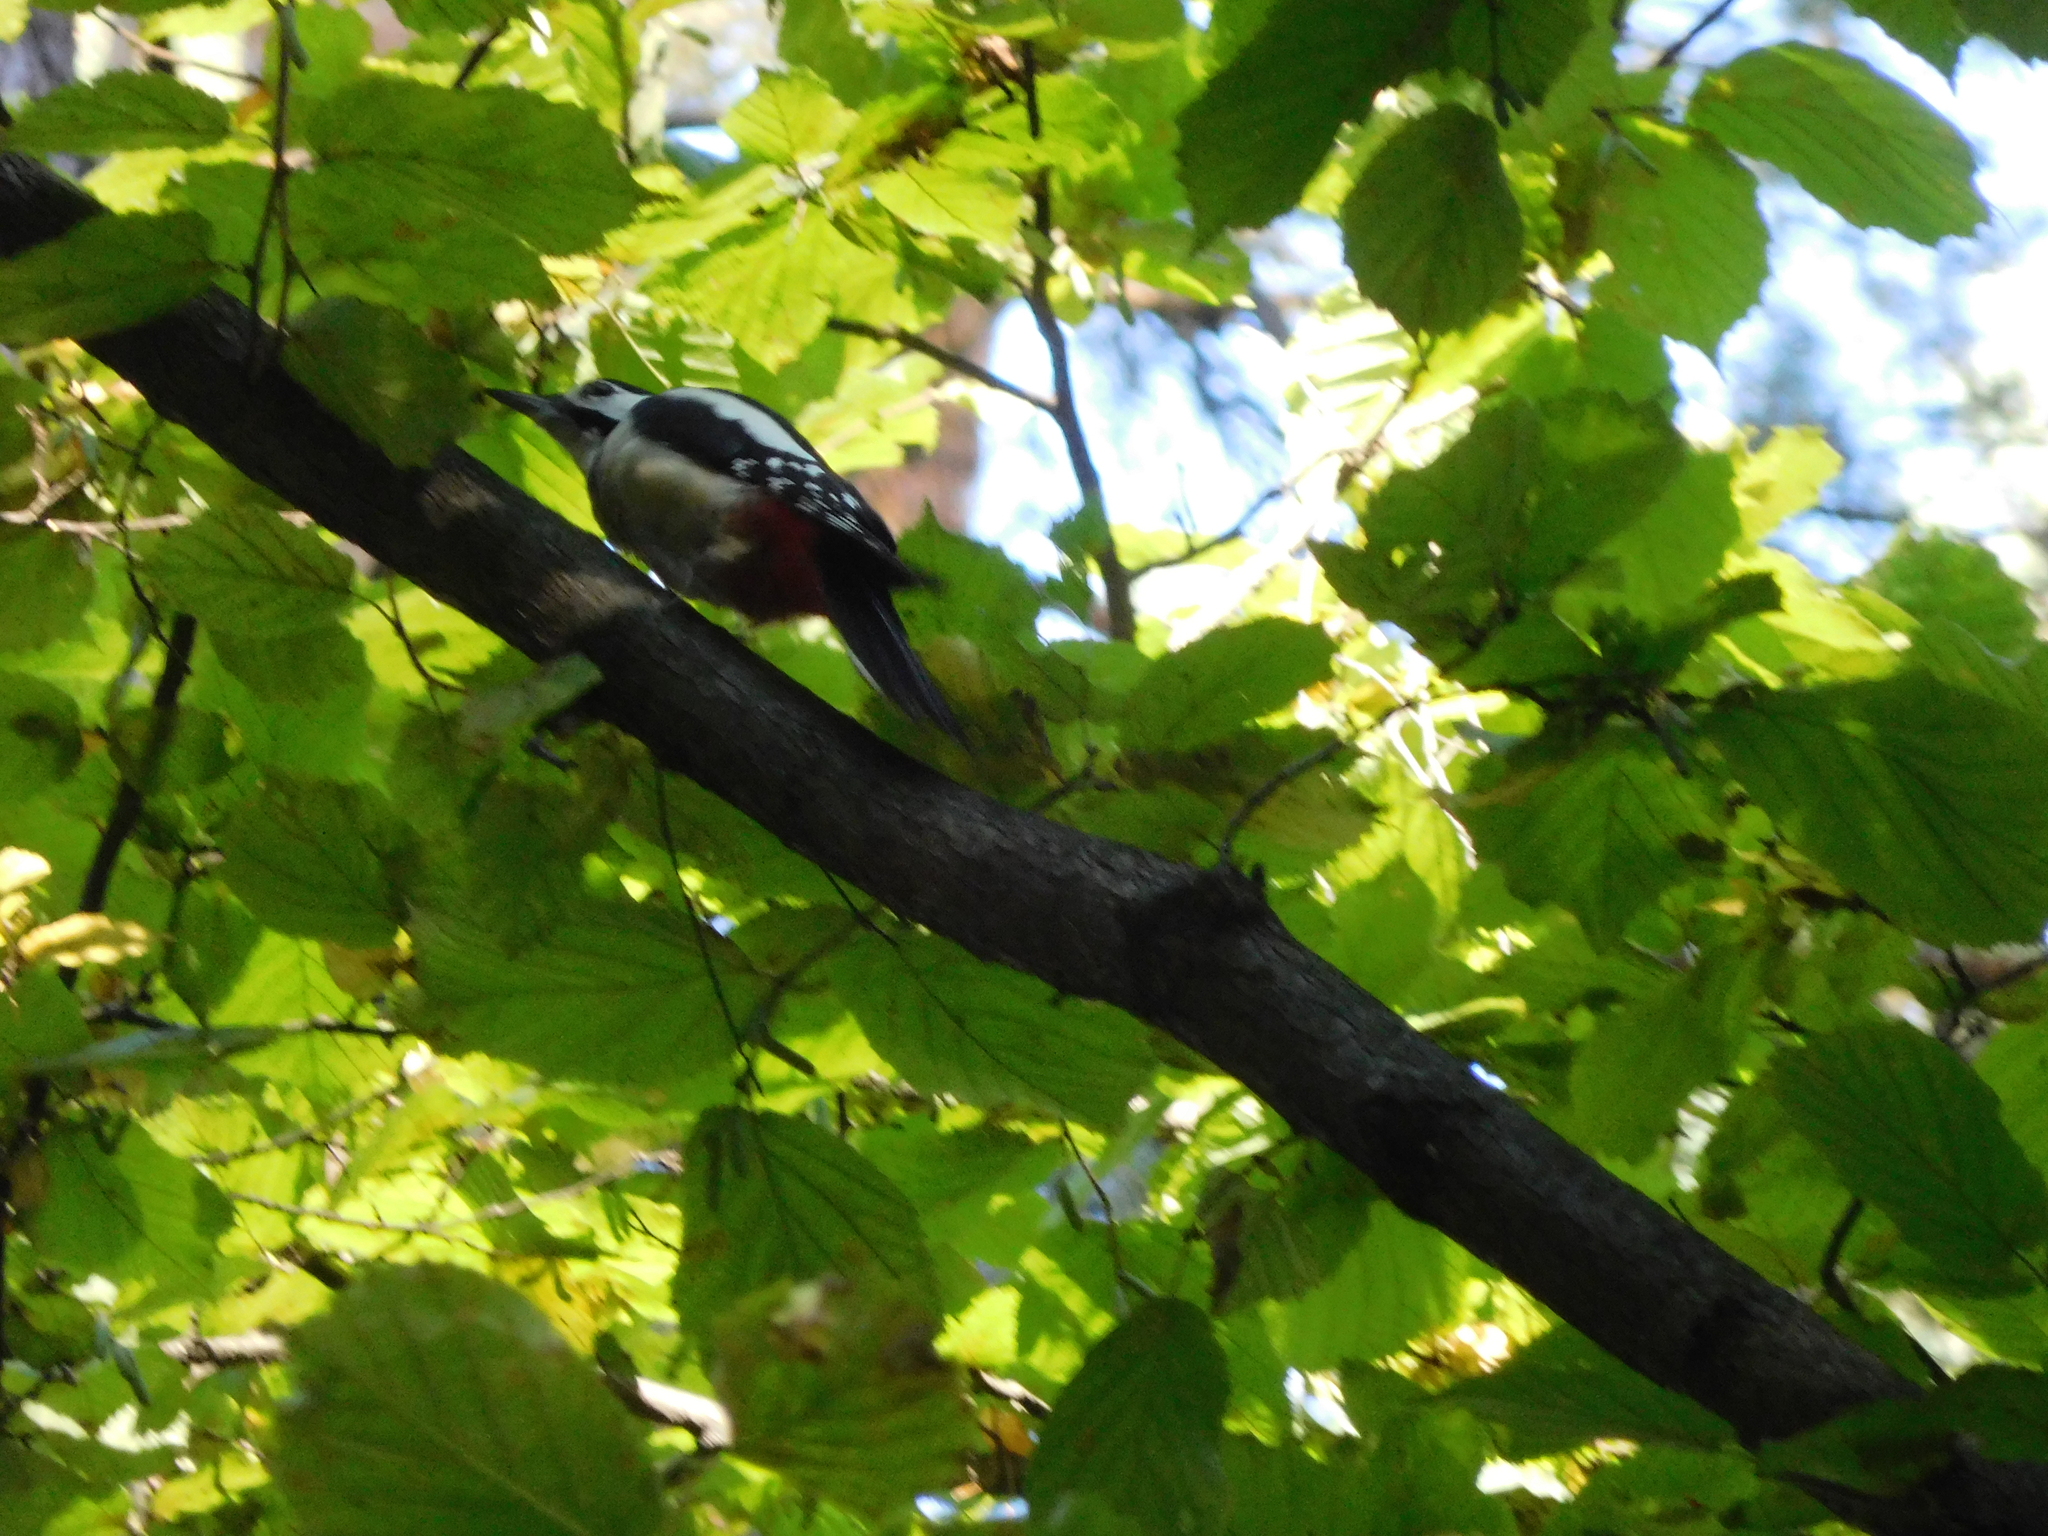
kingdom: Animalia
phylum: Chordata
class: Aves
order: Piciformes
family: Picidae
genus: Dendrocopos
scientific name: Dendrocopos major
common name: Great spotted woodpecker
